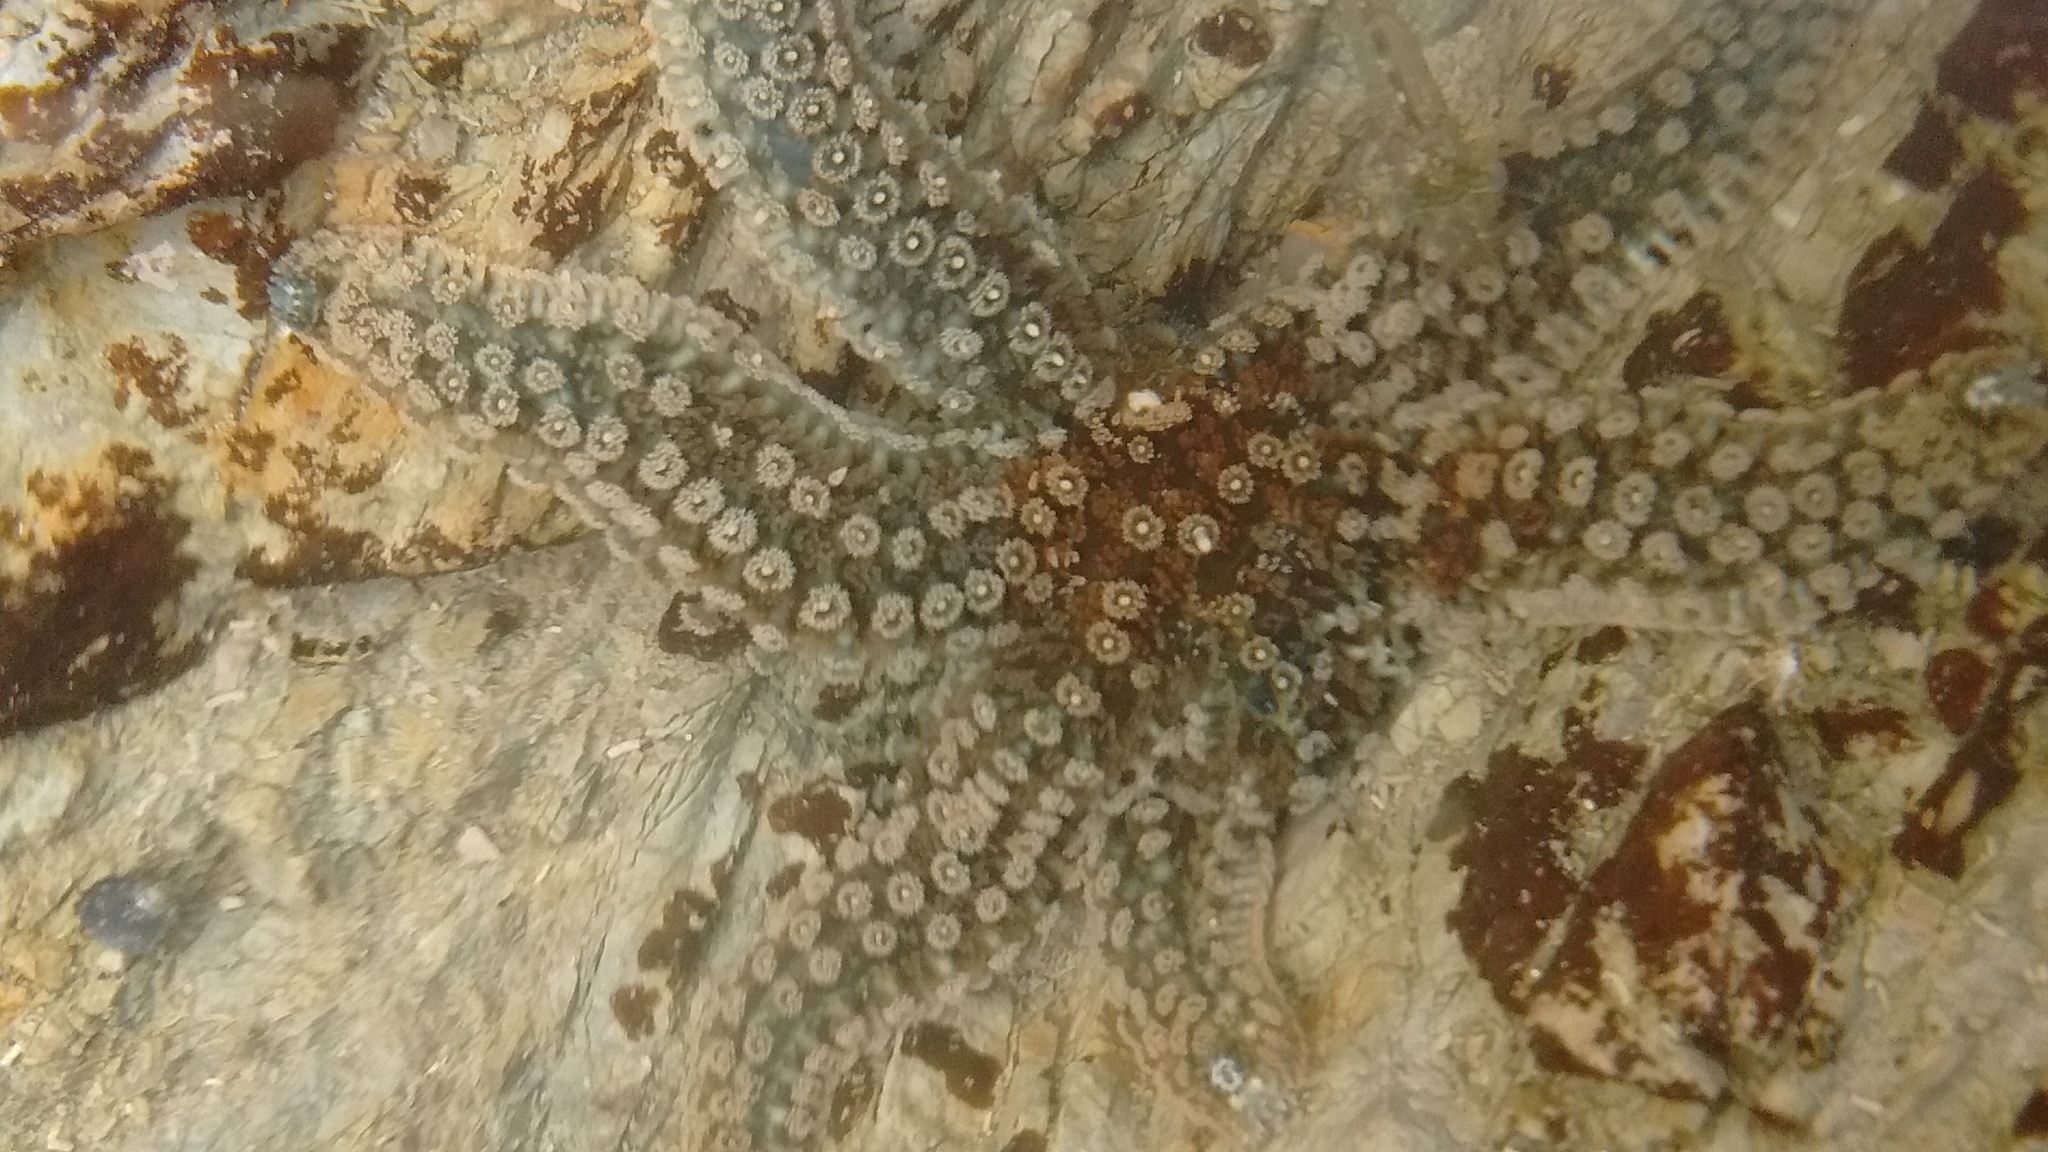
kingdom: Animalia
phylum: Echinodermata
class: Asteroidea
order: Forcipulatida
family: Asteriidae
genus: Coscinasterias
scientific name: Coscinasterias muricata
